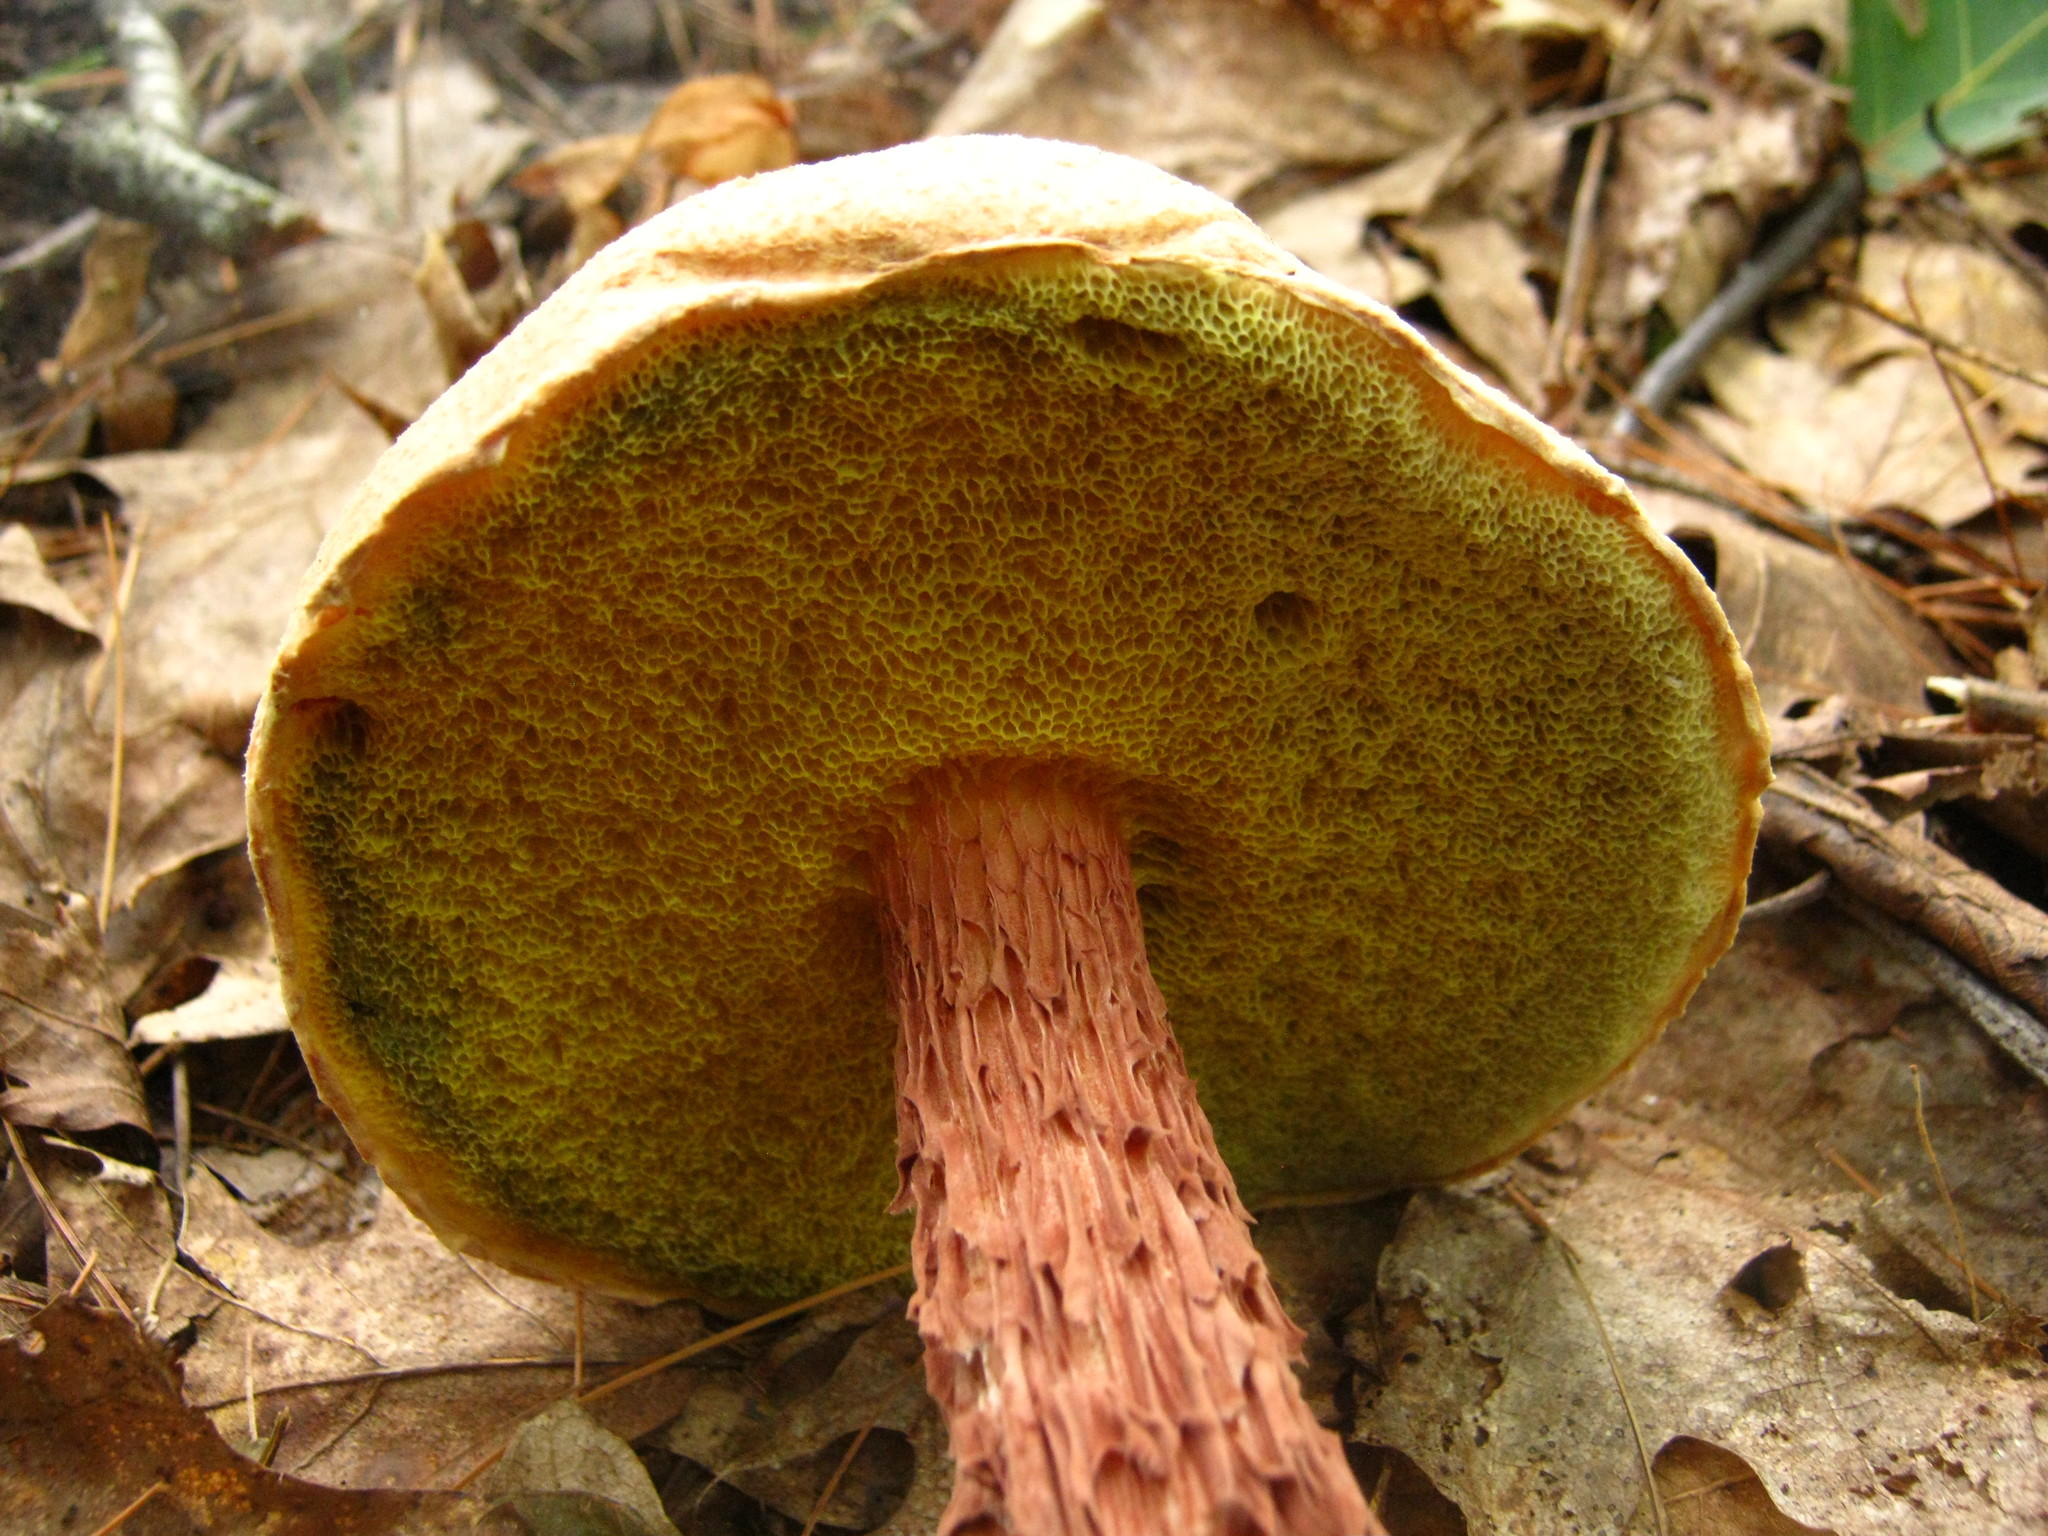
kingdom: Fungi
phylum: Basidiomycota
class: Agaricomycetes
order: Boletales
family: Boletaceae
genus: Aureoboletus
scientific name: Aureoboletus russellii
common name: Russell's bolete
